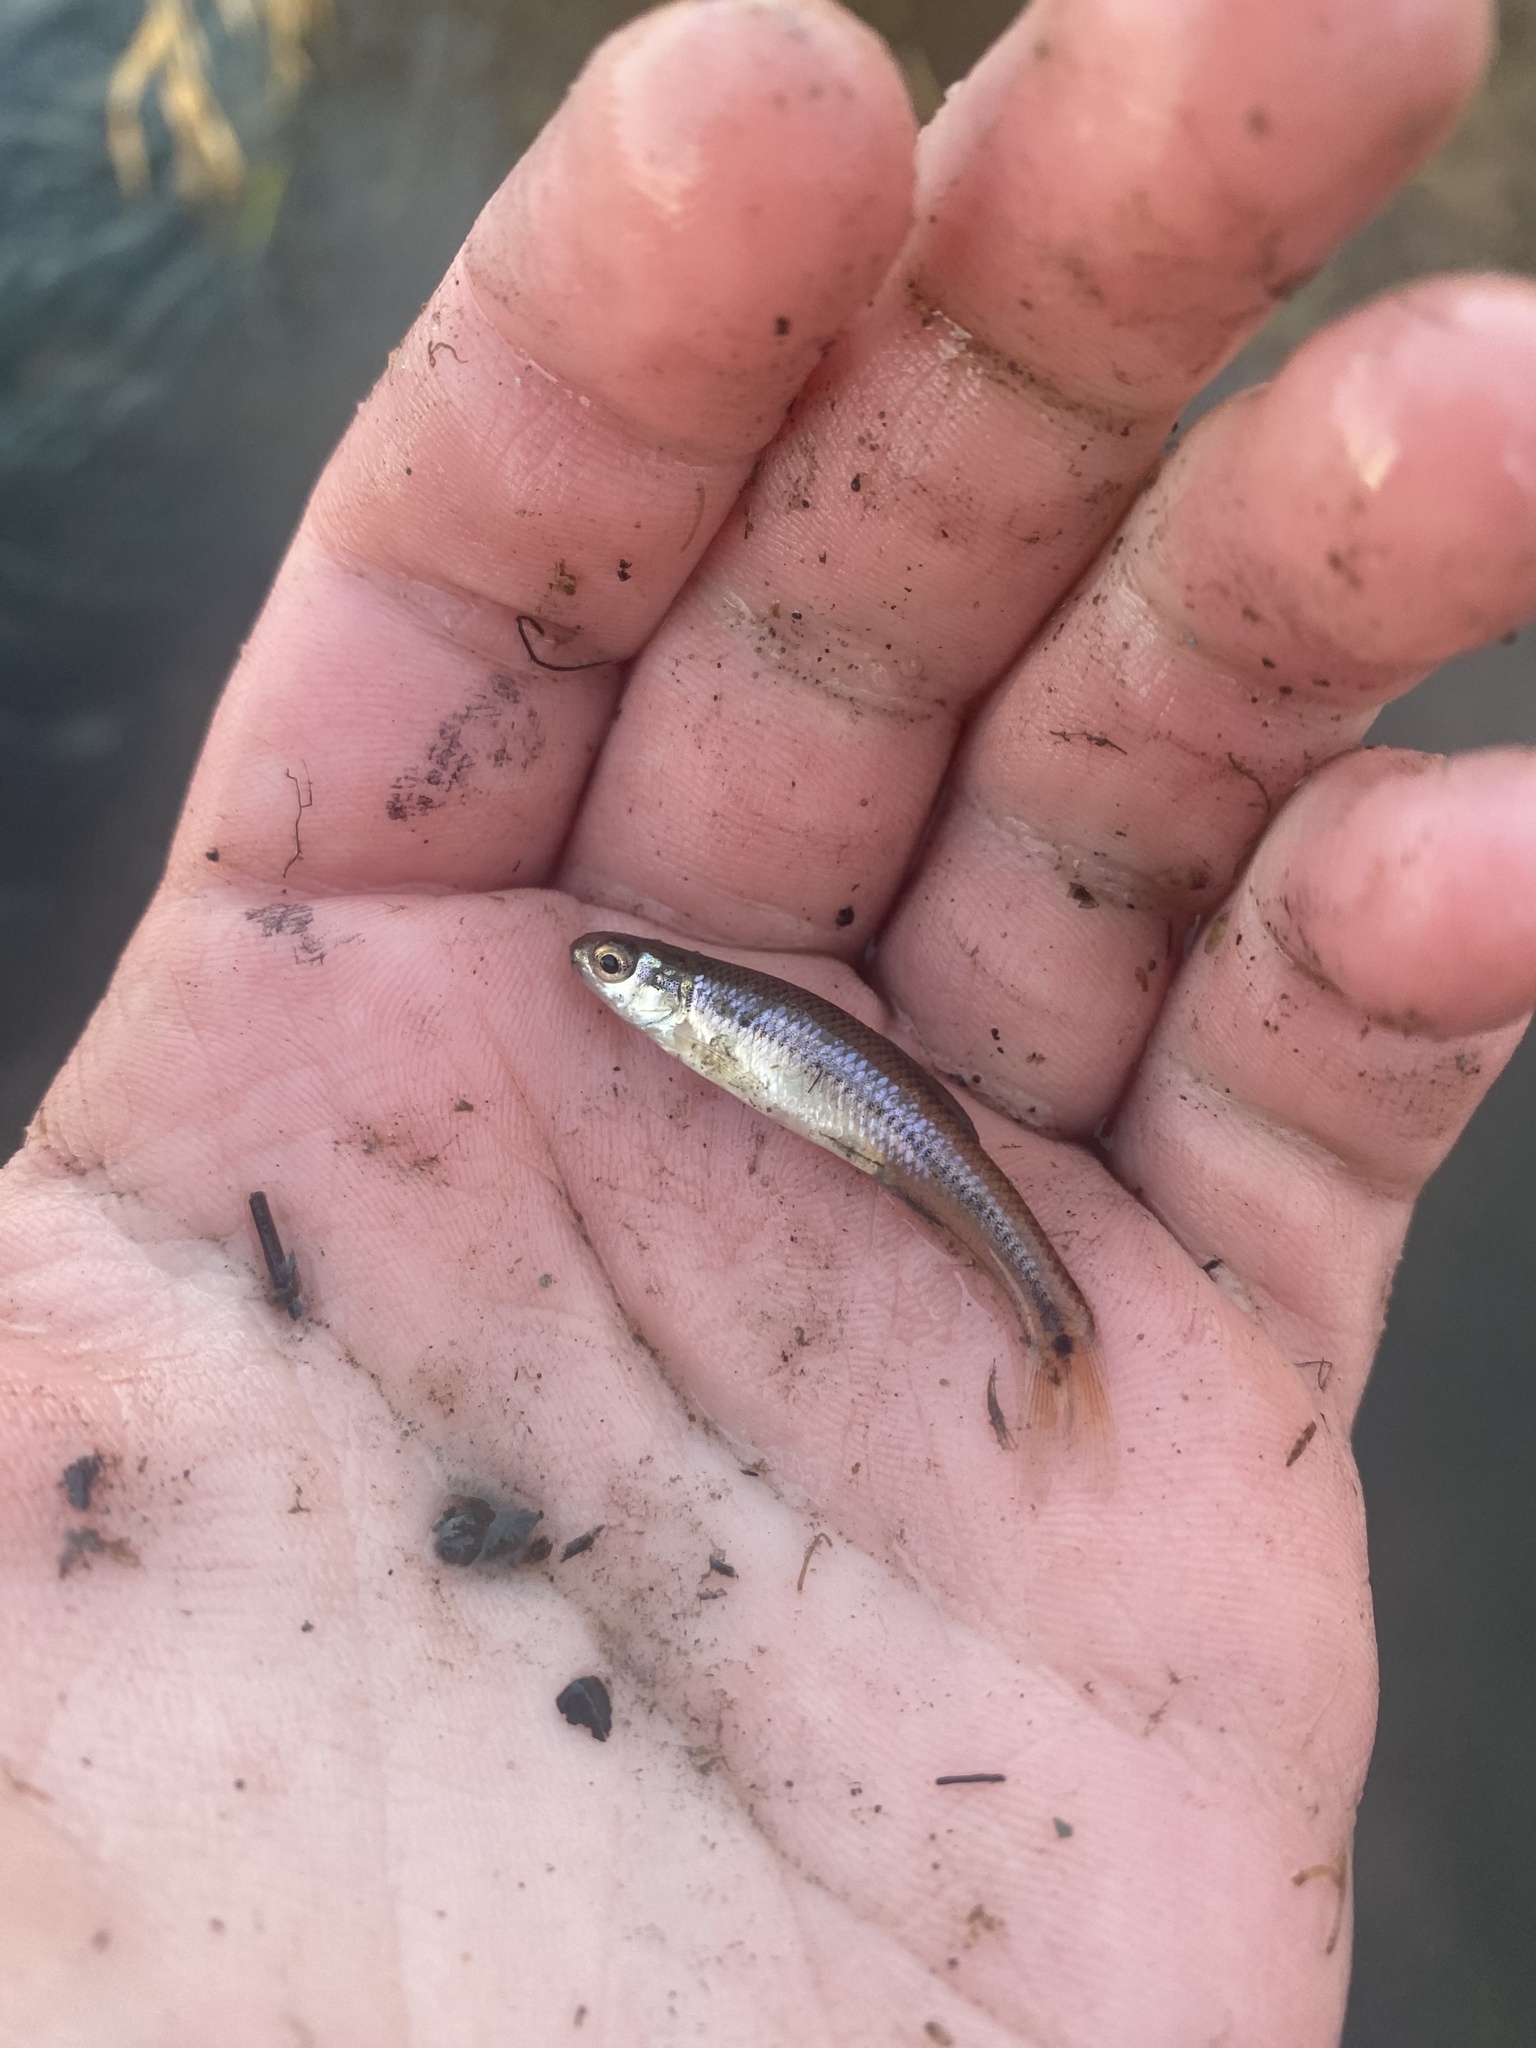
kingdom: Animalia
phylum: Chordata
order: Cypriniformes
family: Cyprinidae
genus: Pimephales
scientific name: Pimephales notatus
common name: Bluntnose minnow
